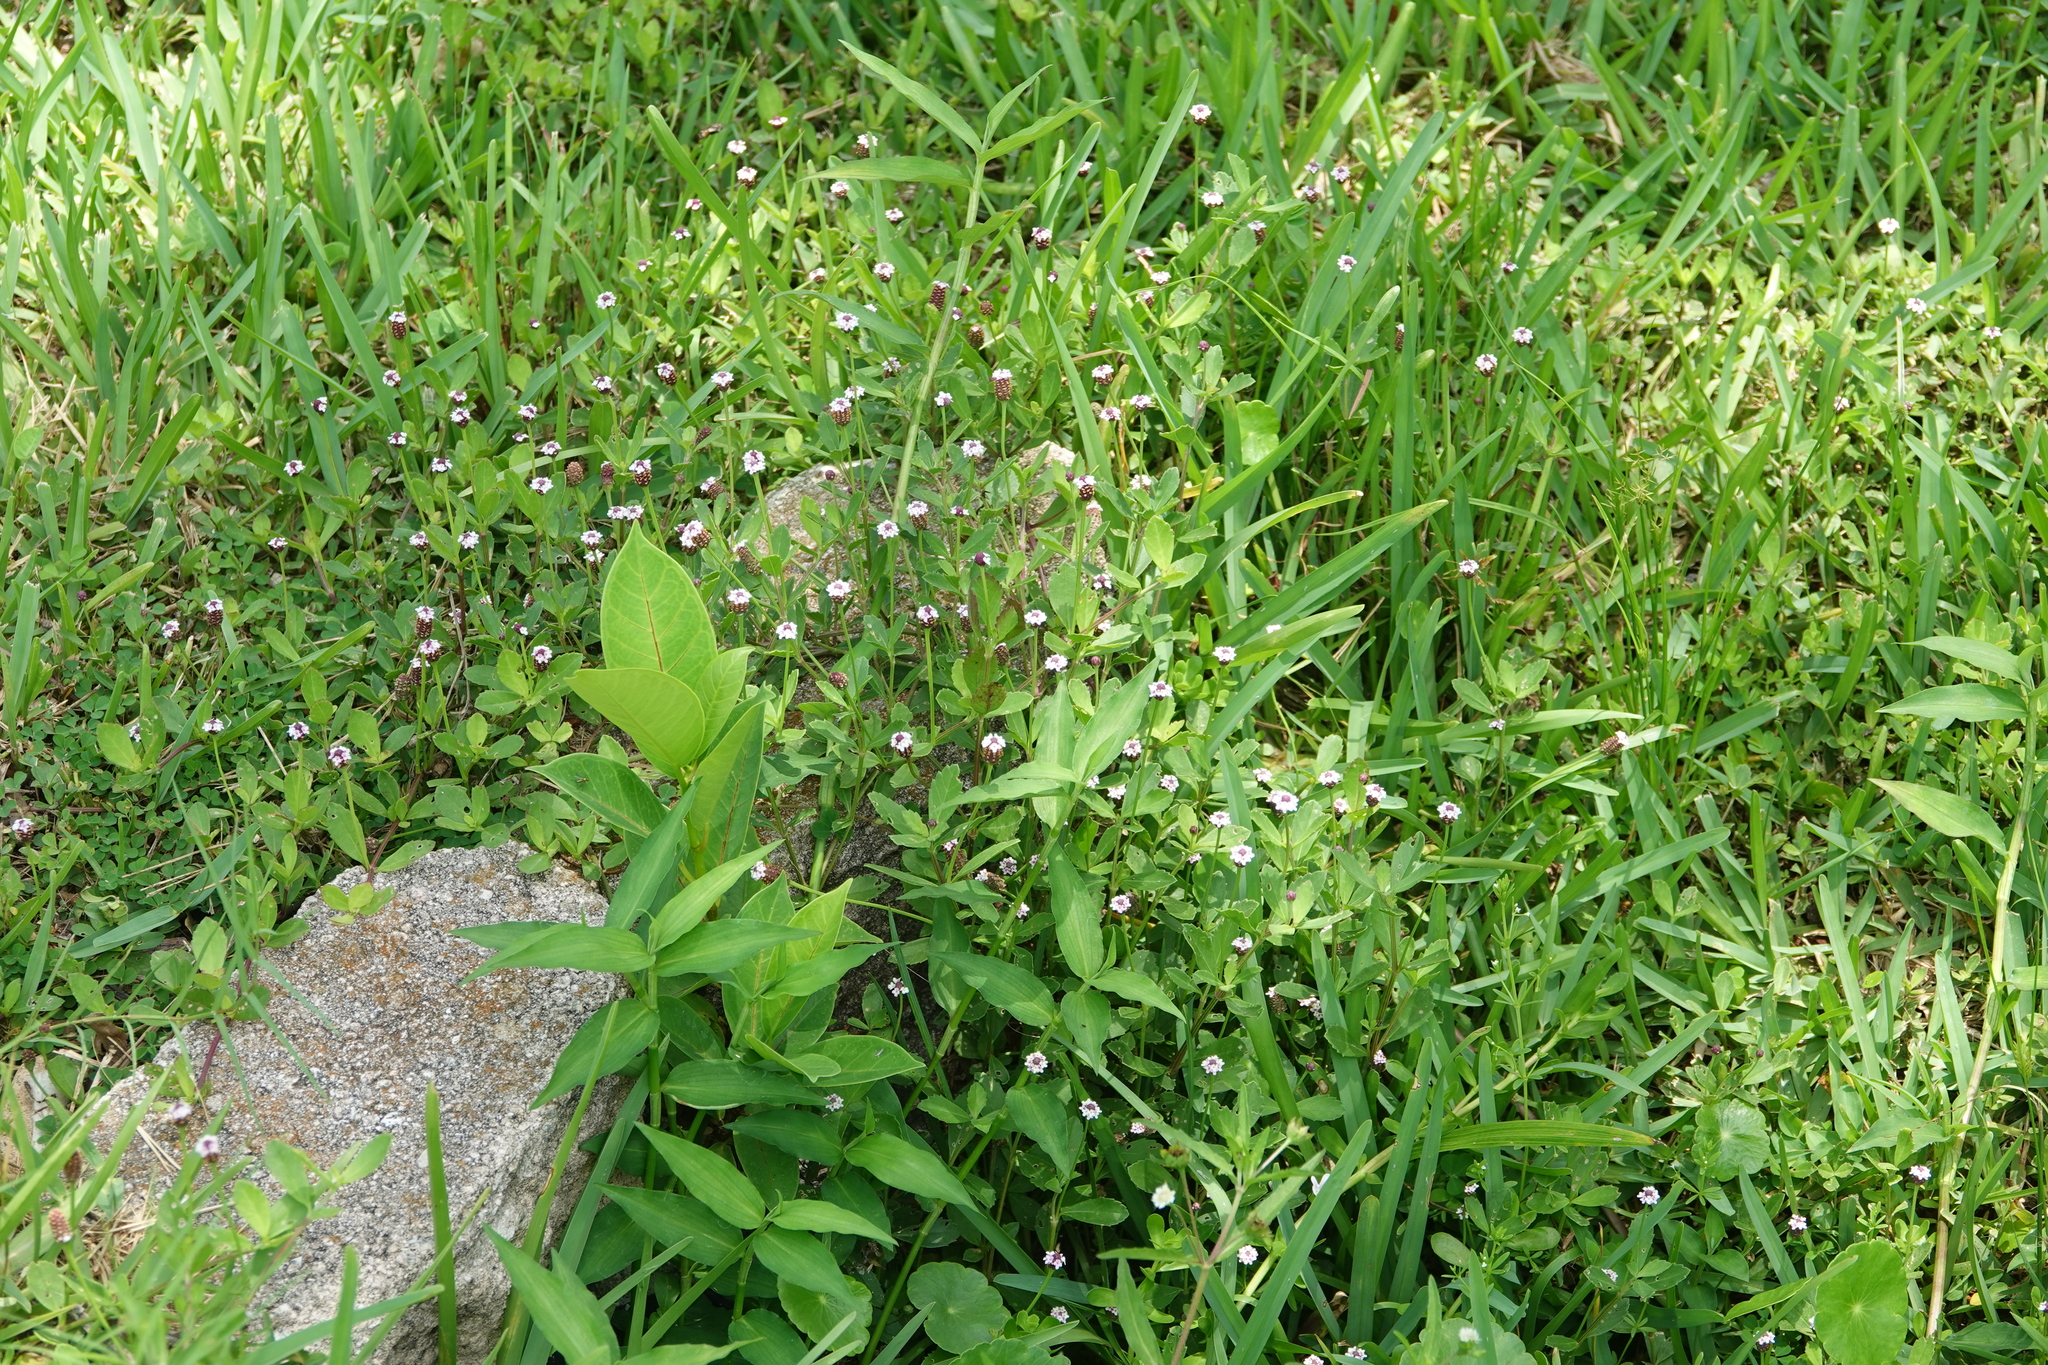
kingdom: Plantae
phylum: Tracheophyta
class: Magnoliopsida
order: Lamiales
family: Verbenaceae
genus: Phyla
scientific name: Phyla nodiflora
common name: Frogfruit
